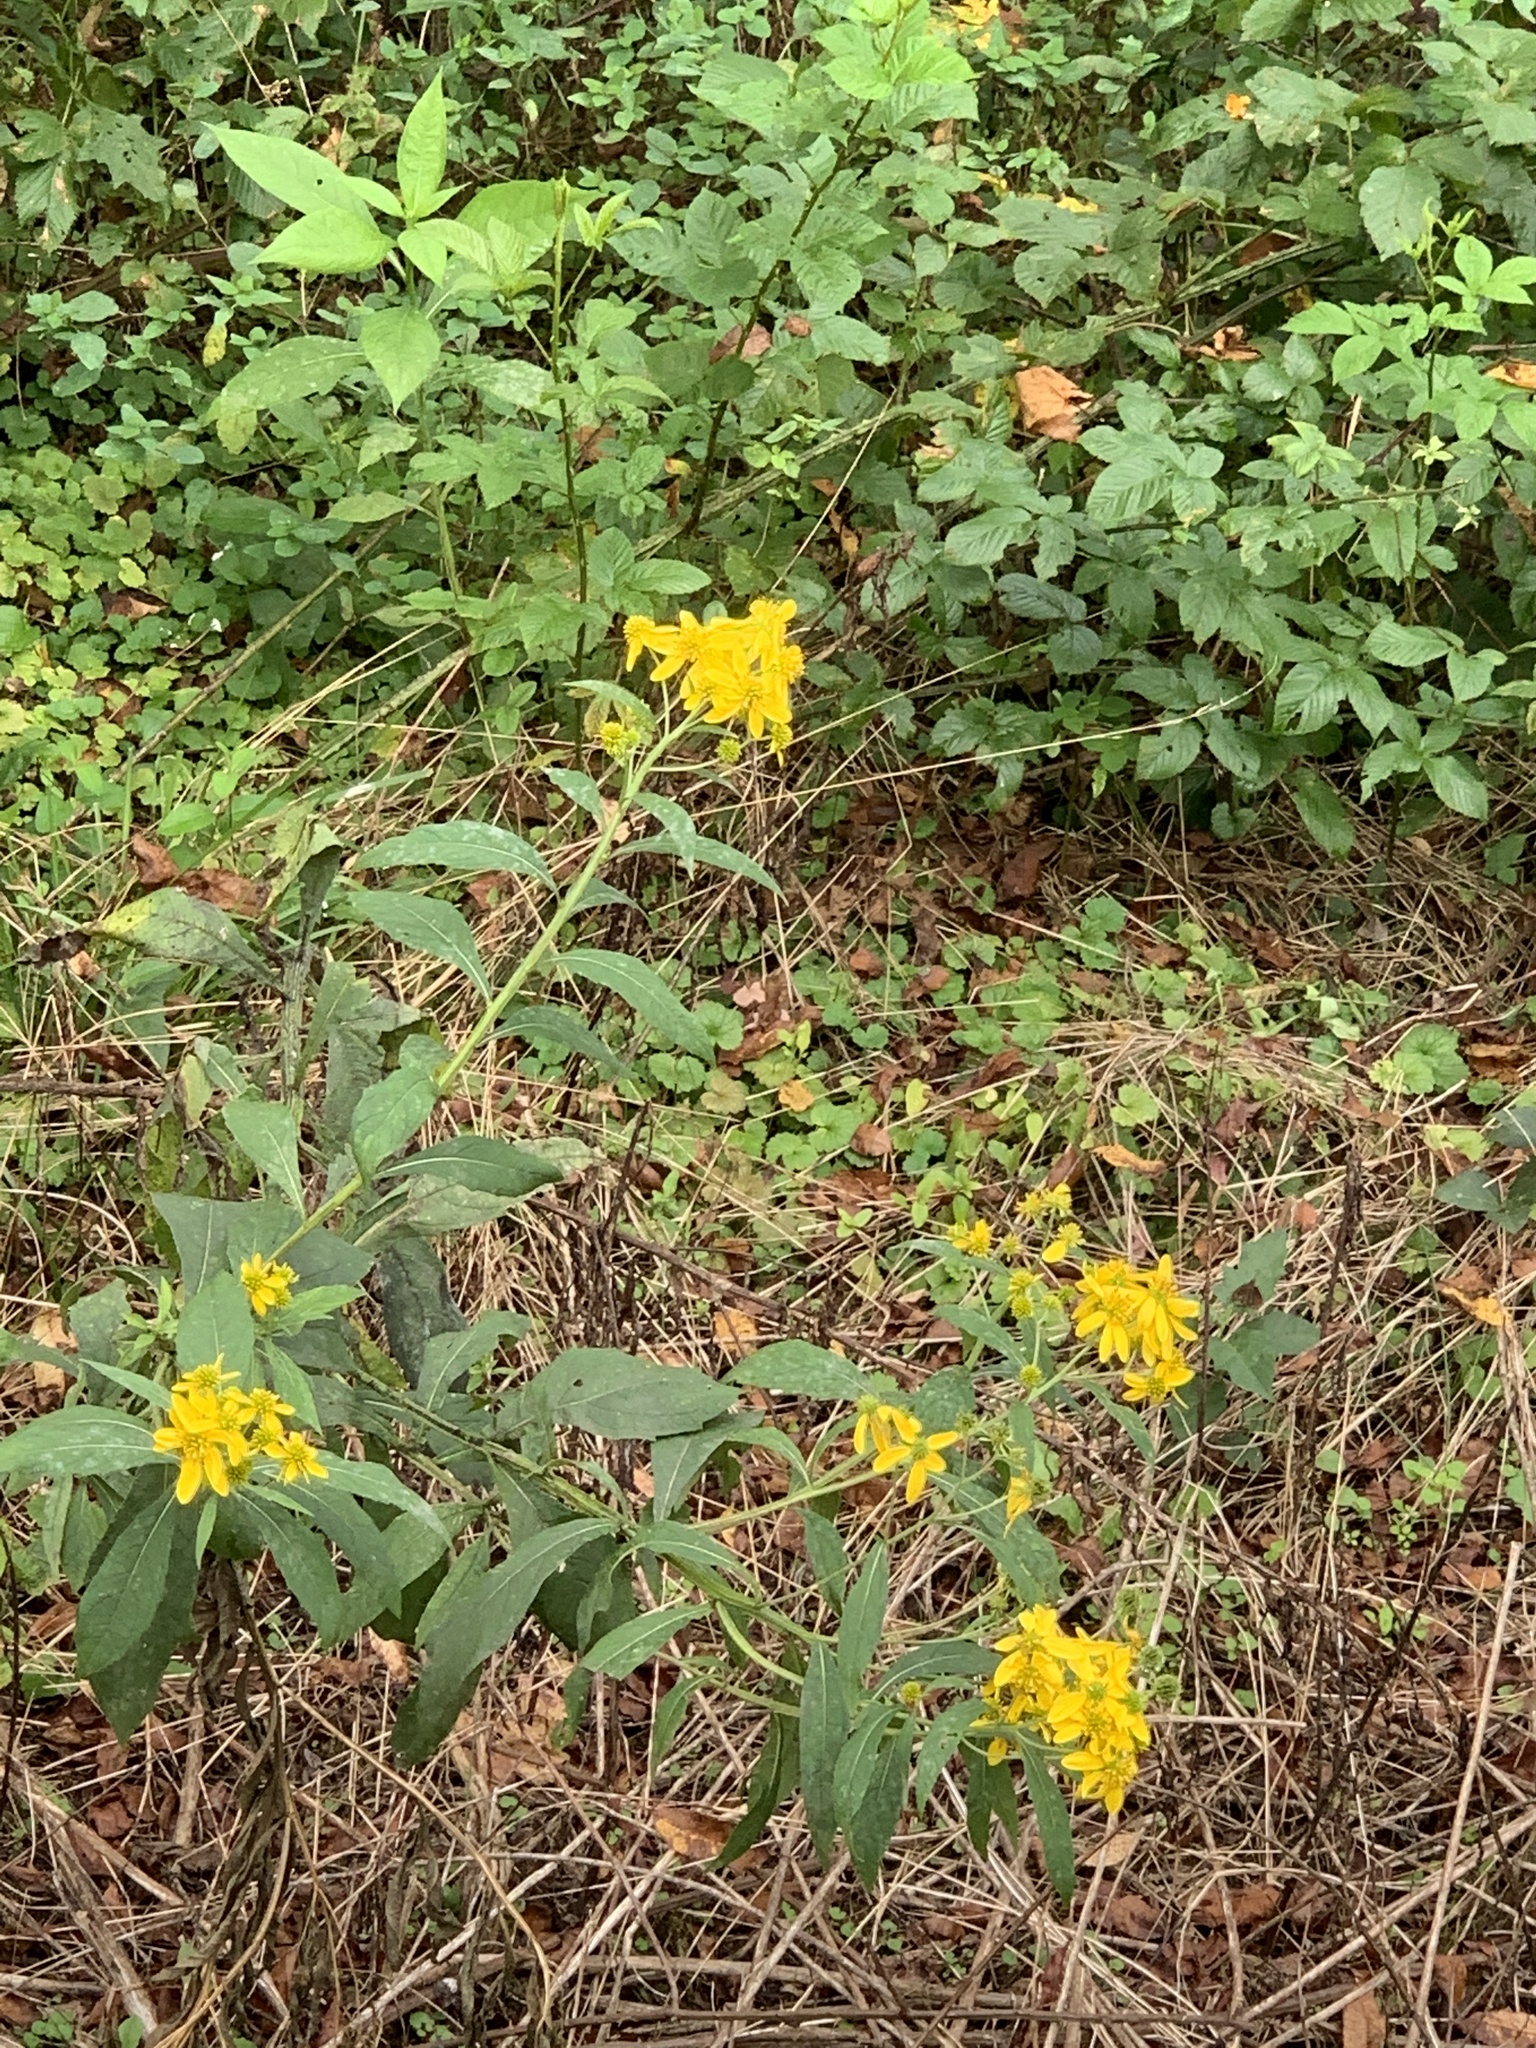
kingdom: Plantae
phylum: Tracheophyta
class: Magnoliopsida
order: Asterales
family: Asteraceae
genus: Verbesina
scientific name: Verbesina alternifolia
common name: Wingstem
